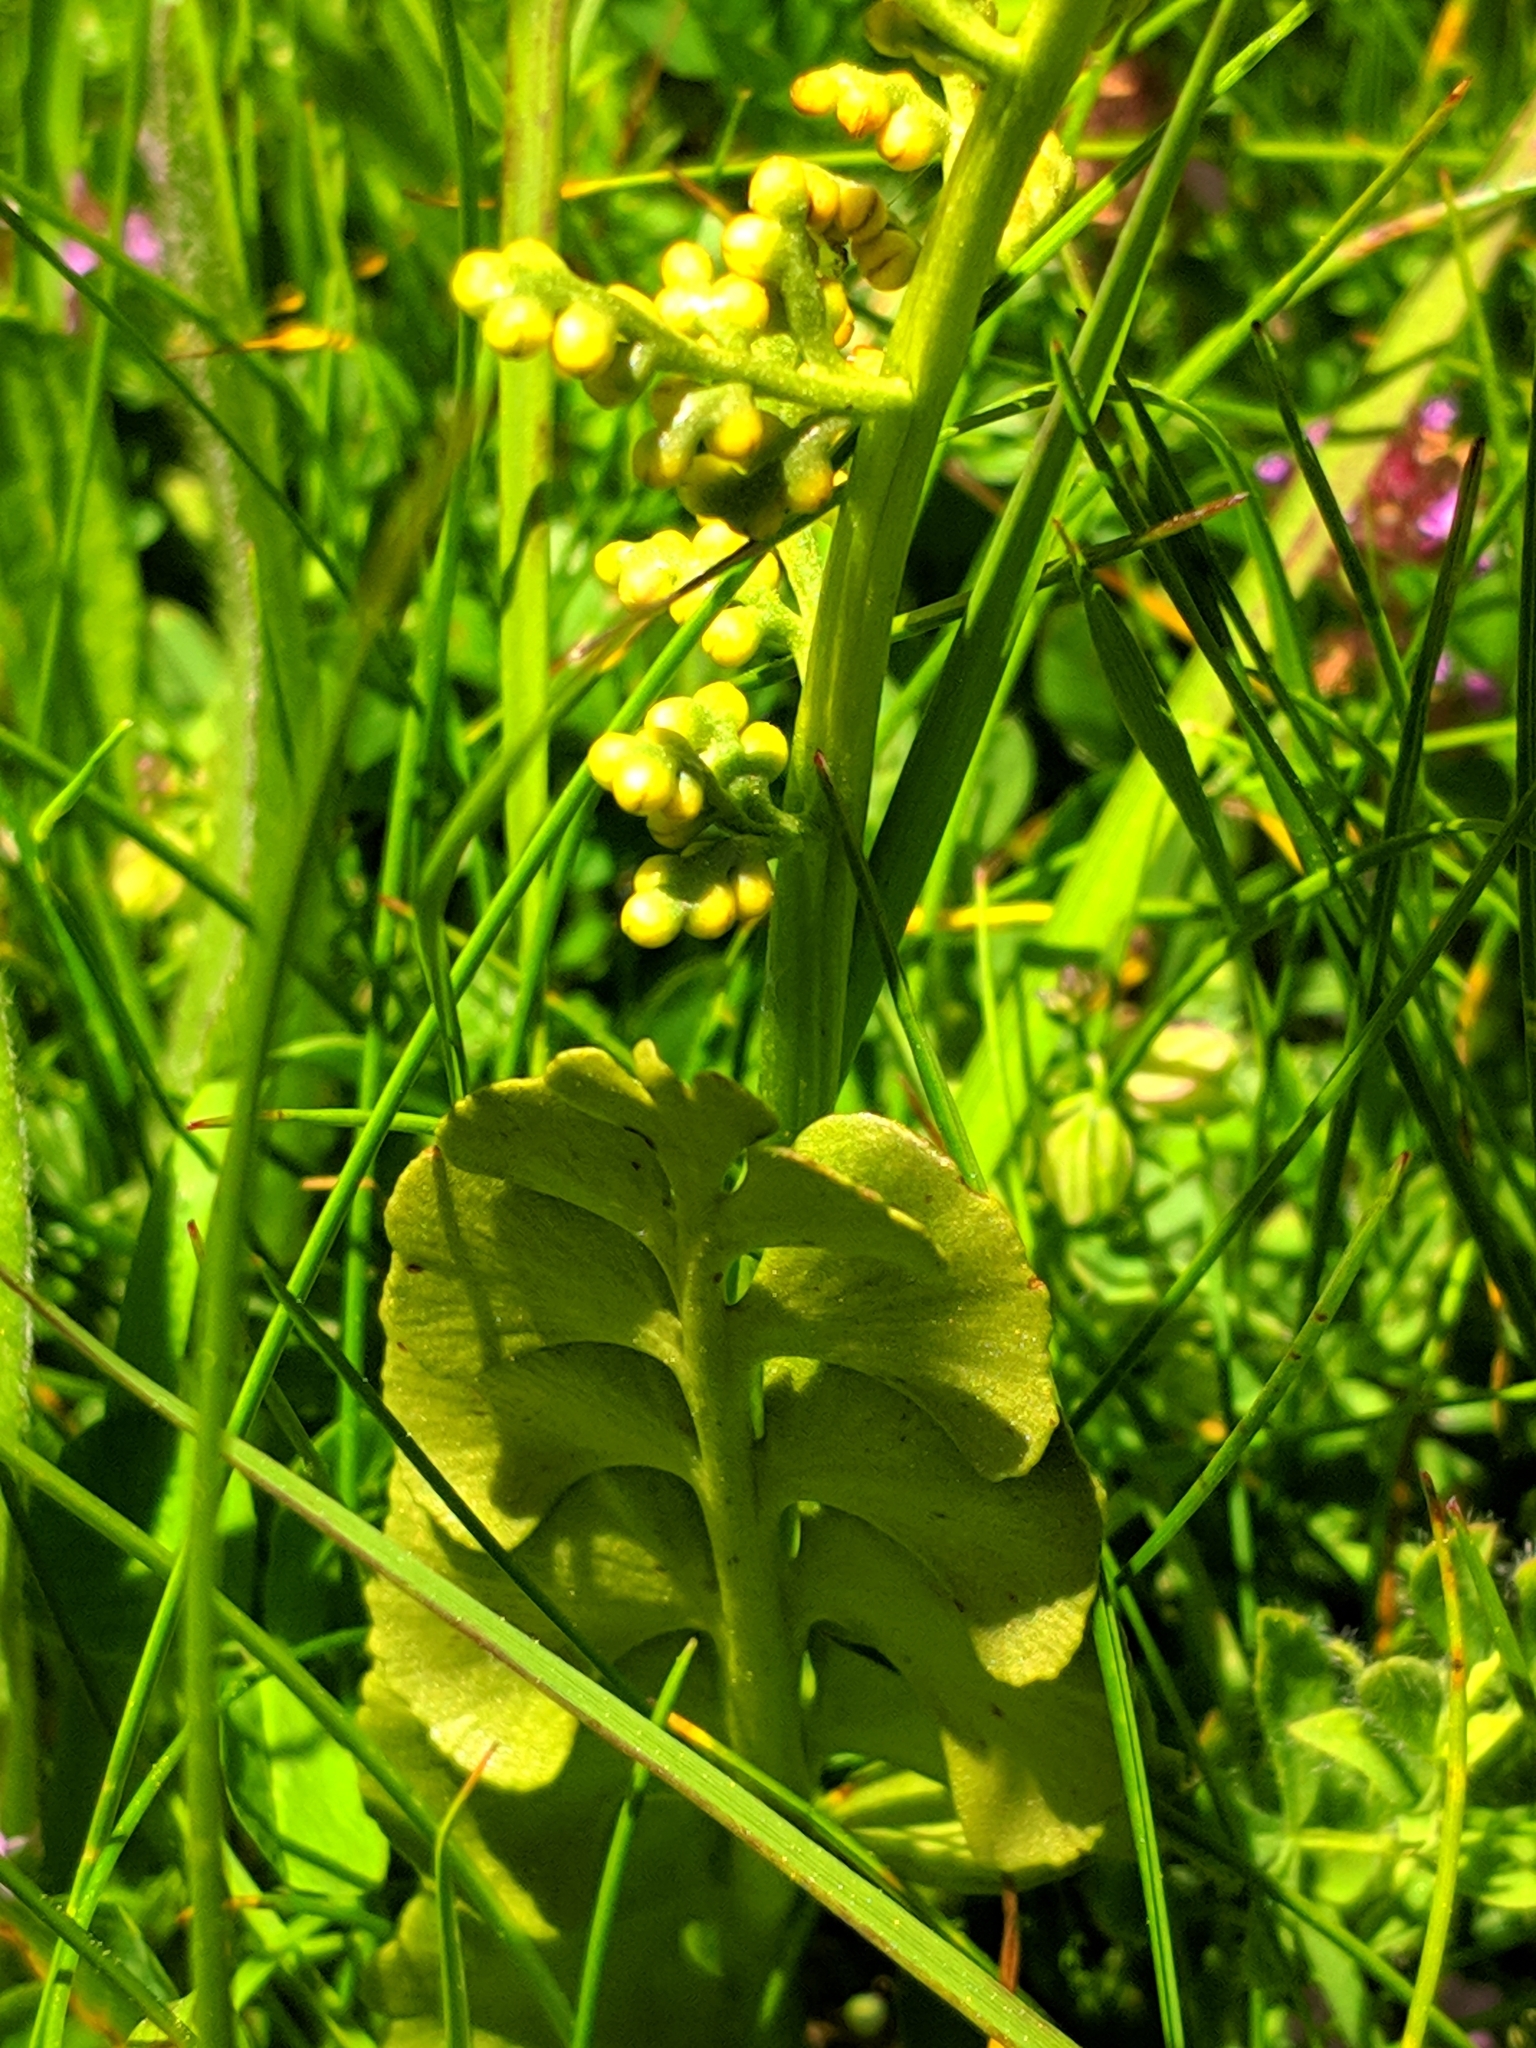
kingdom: Plantae
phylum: Tracheophyta
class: Polypodiopsida
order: Ophioglossales
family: Ophioglossaceae
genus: Botrychium
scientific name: Botrychium lunaria
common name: Moonwort
